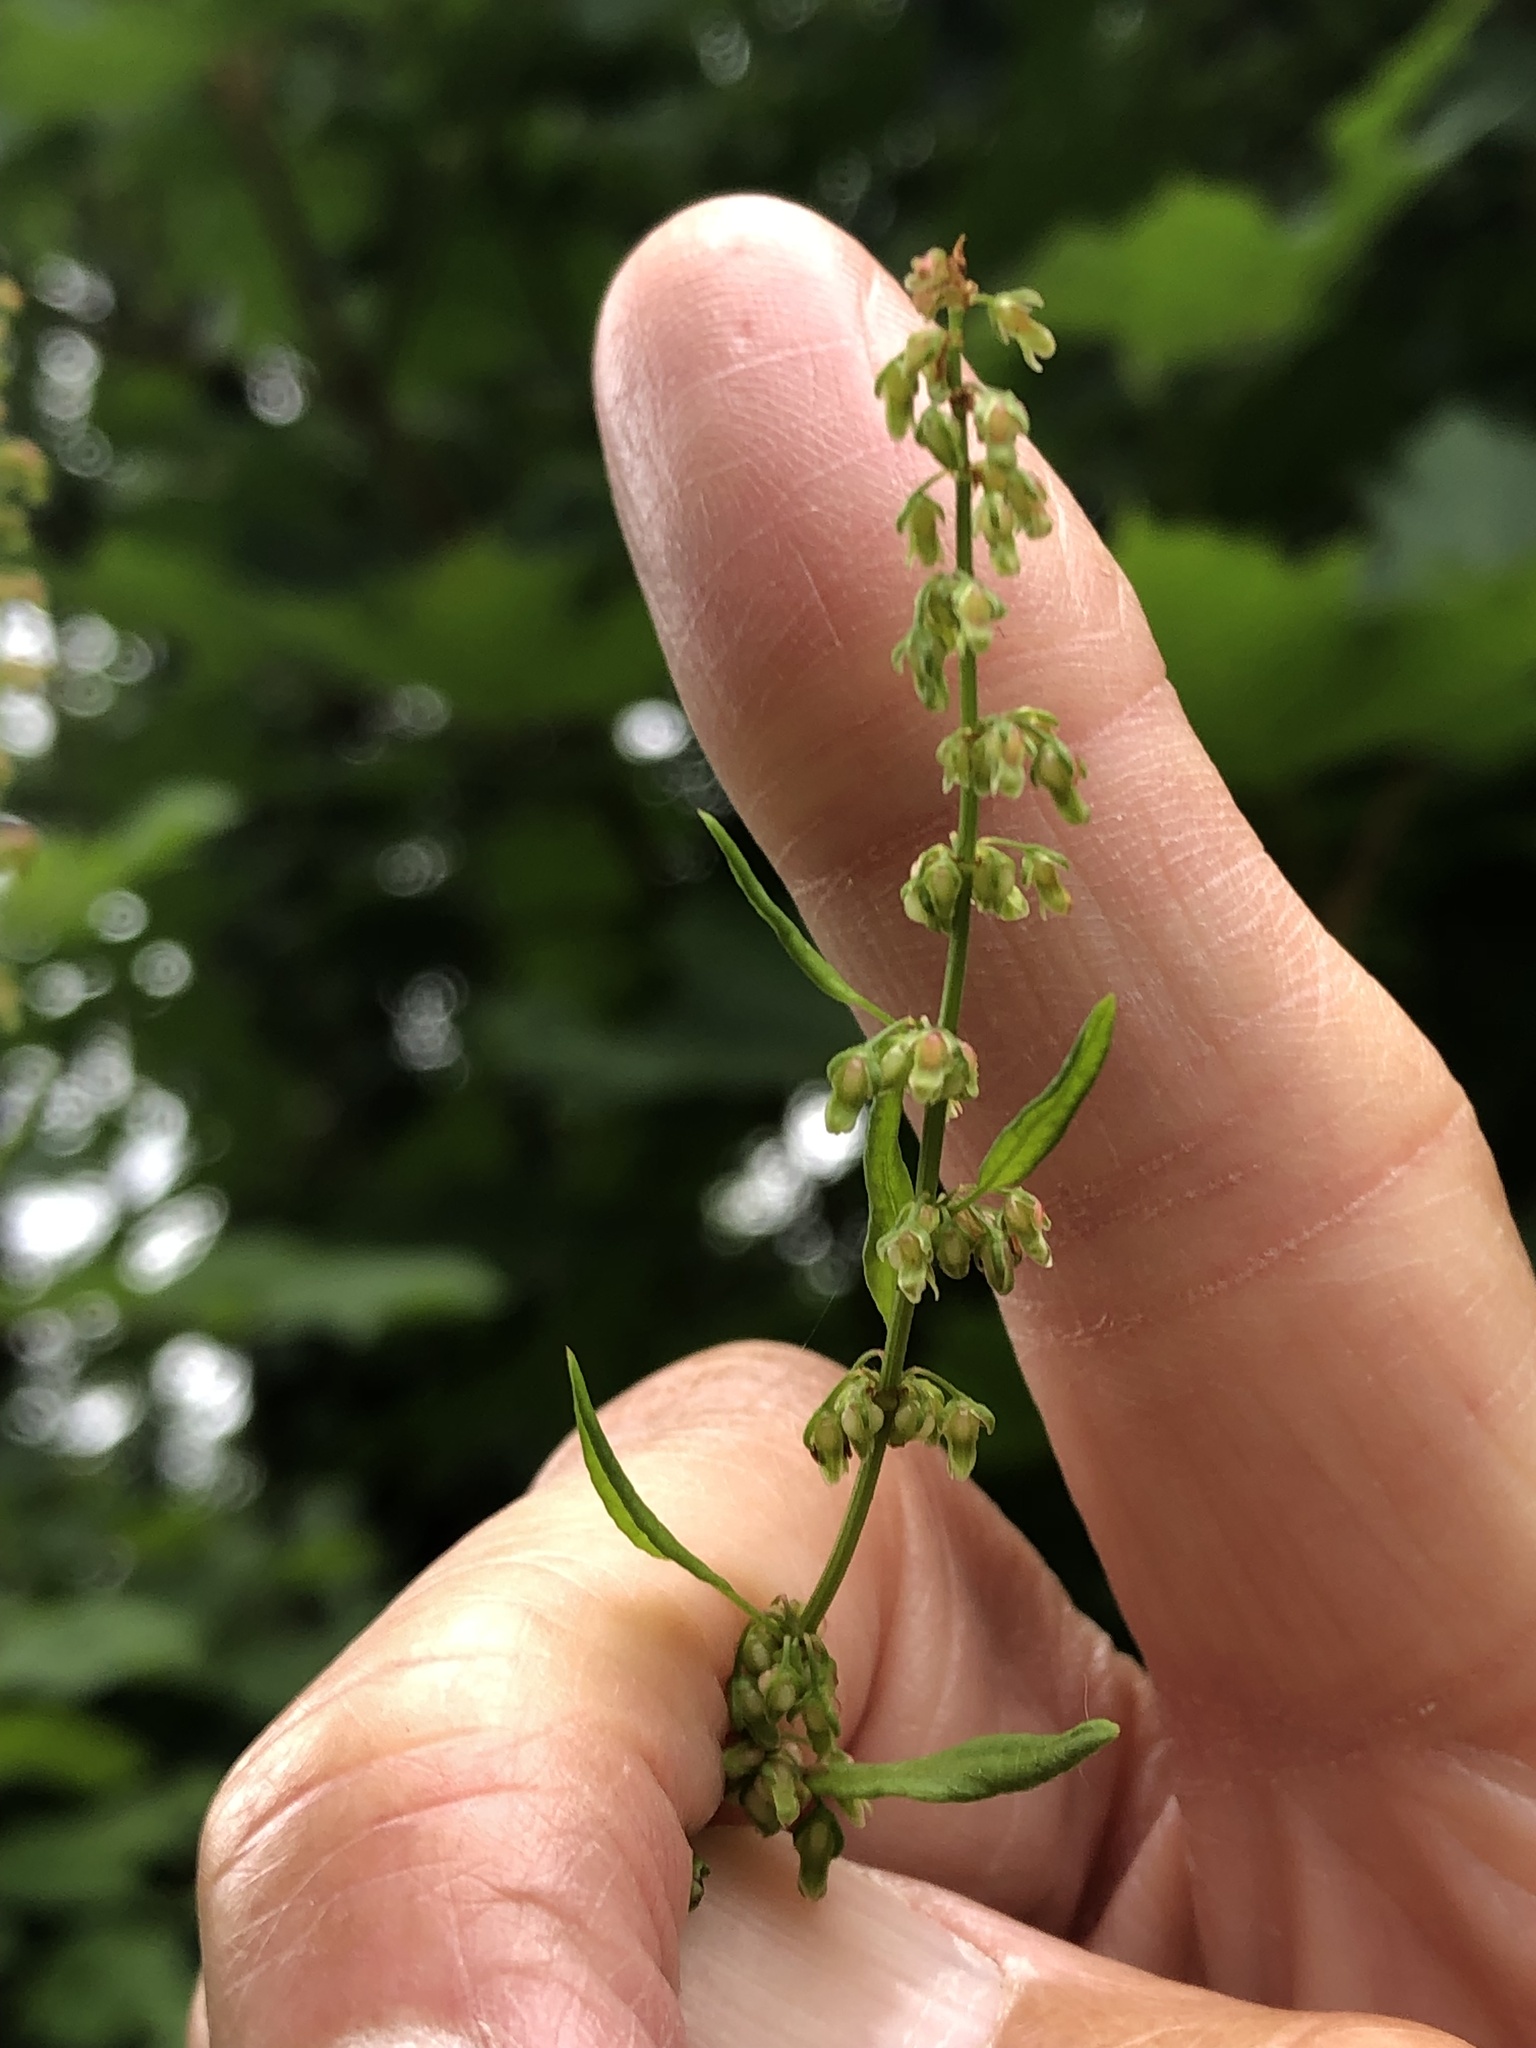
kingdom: Plantae
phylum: Tracheophyta
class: Magnoliopsida
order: Caryophyllales
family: Polygonaceae
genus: Rumex
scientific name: Rumex conglomeratus
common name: Clustered dock
